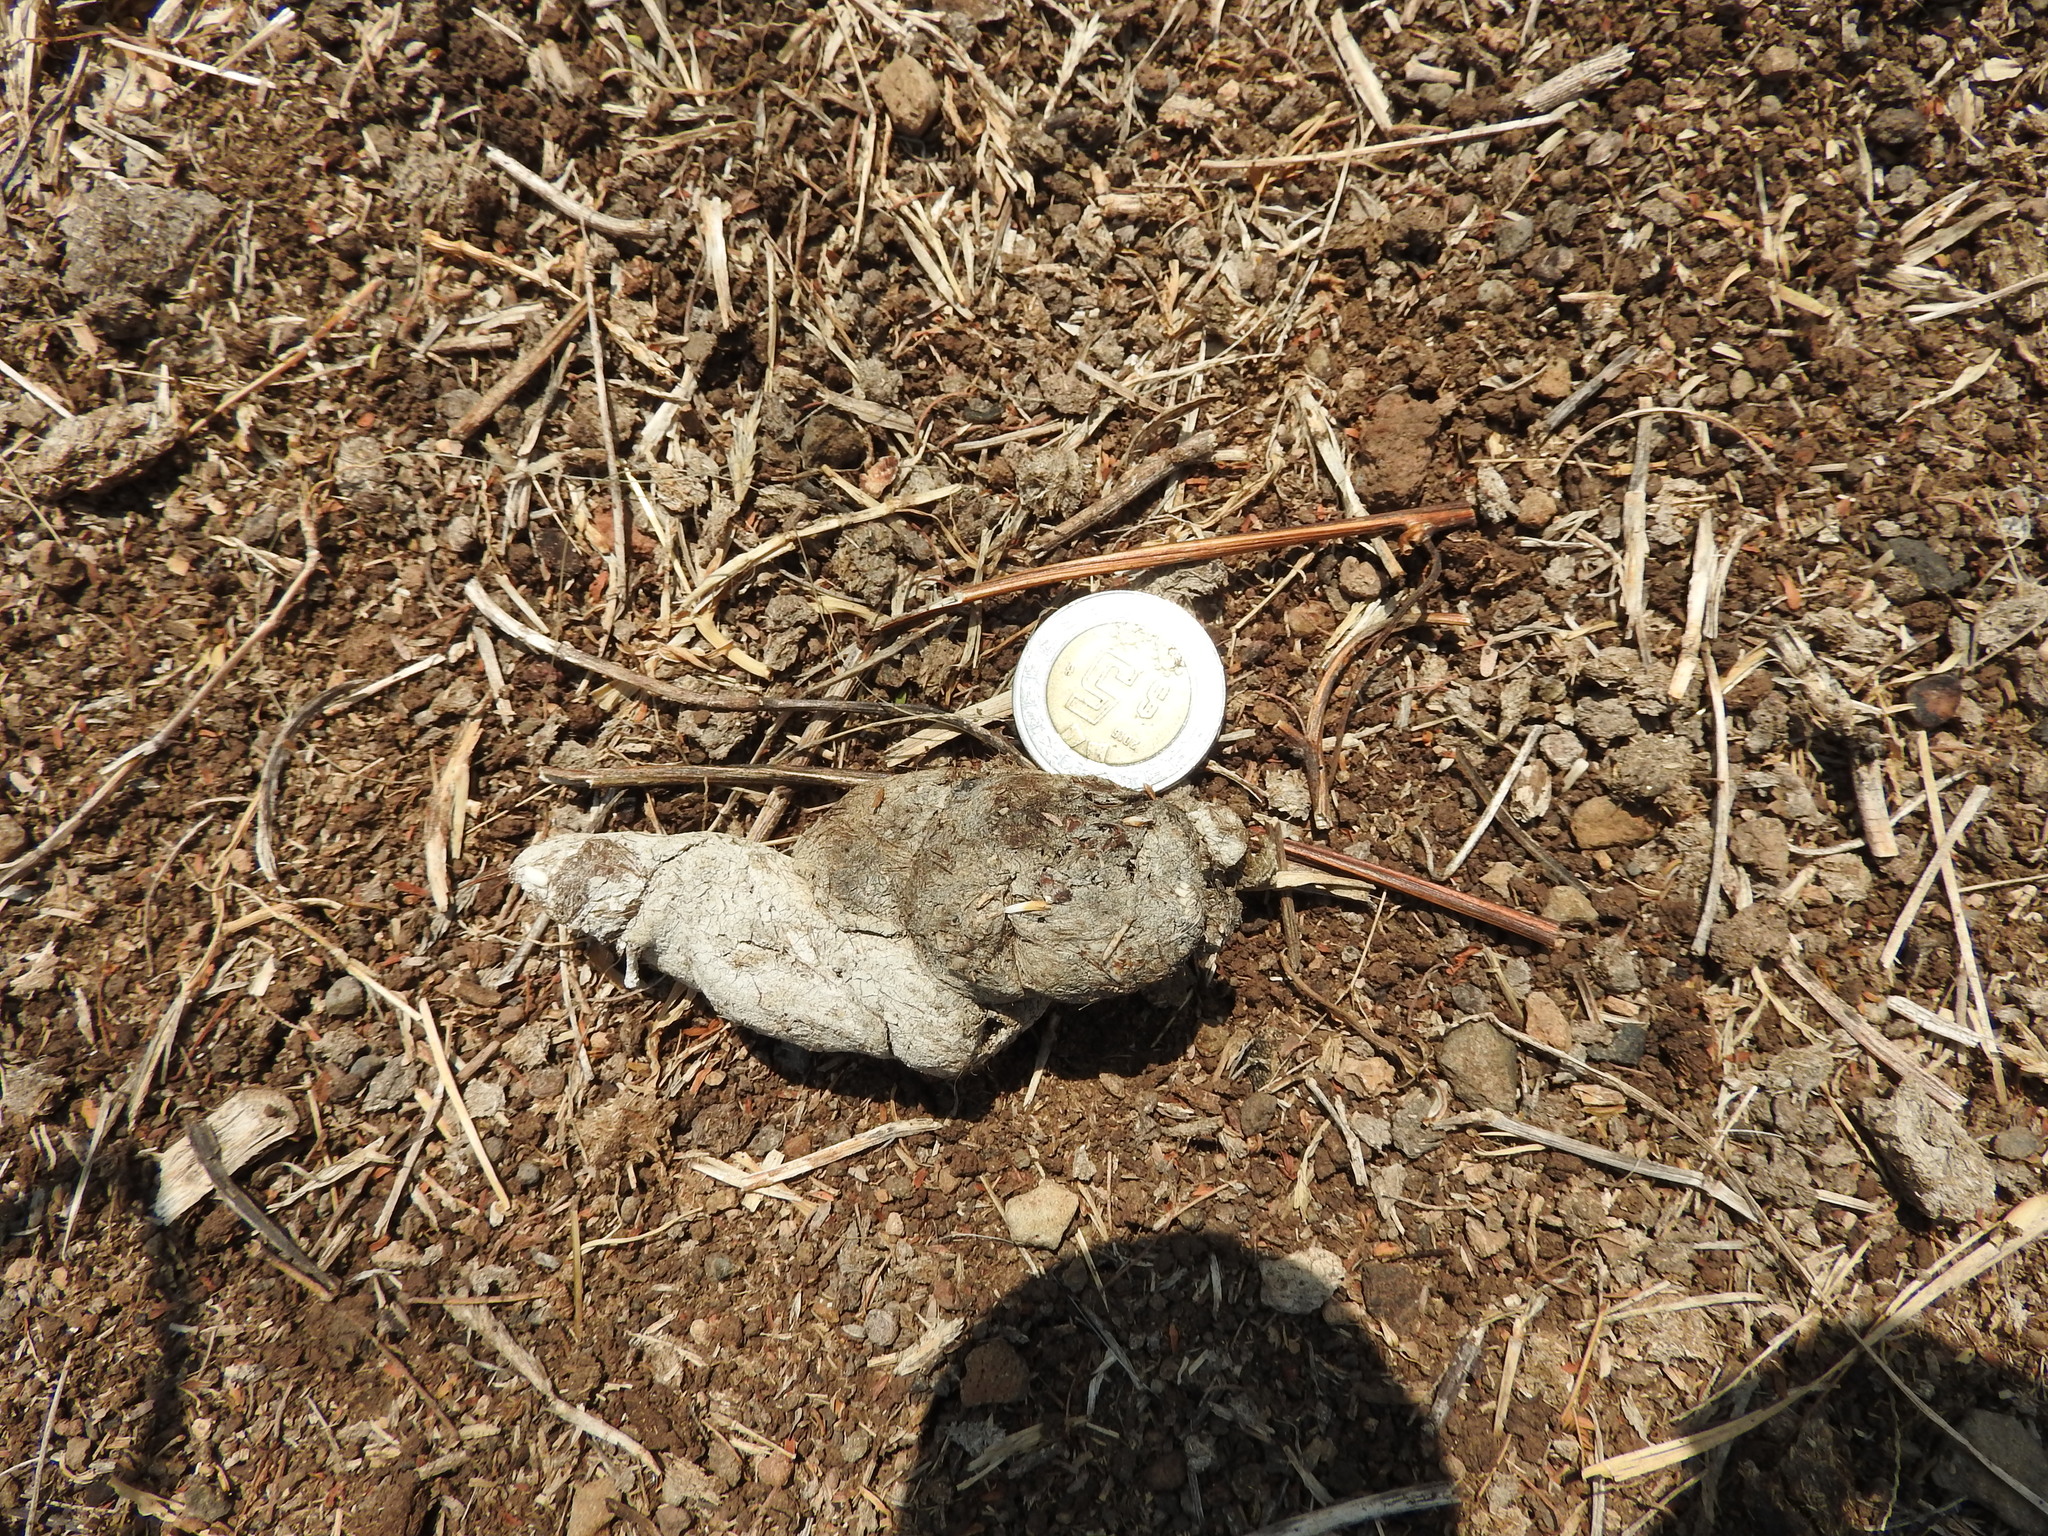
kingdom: Animalia
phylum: Chordata
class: Mammalia
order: Carnivora
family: Felidae
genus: Lynx
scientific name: Lynx rufus
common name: Bobcat
